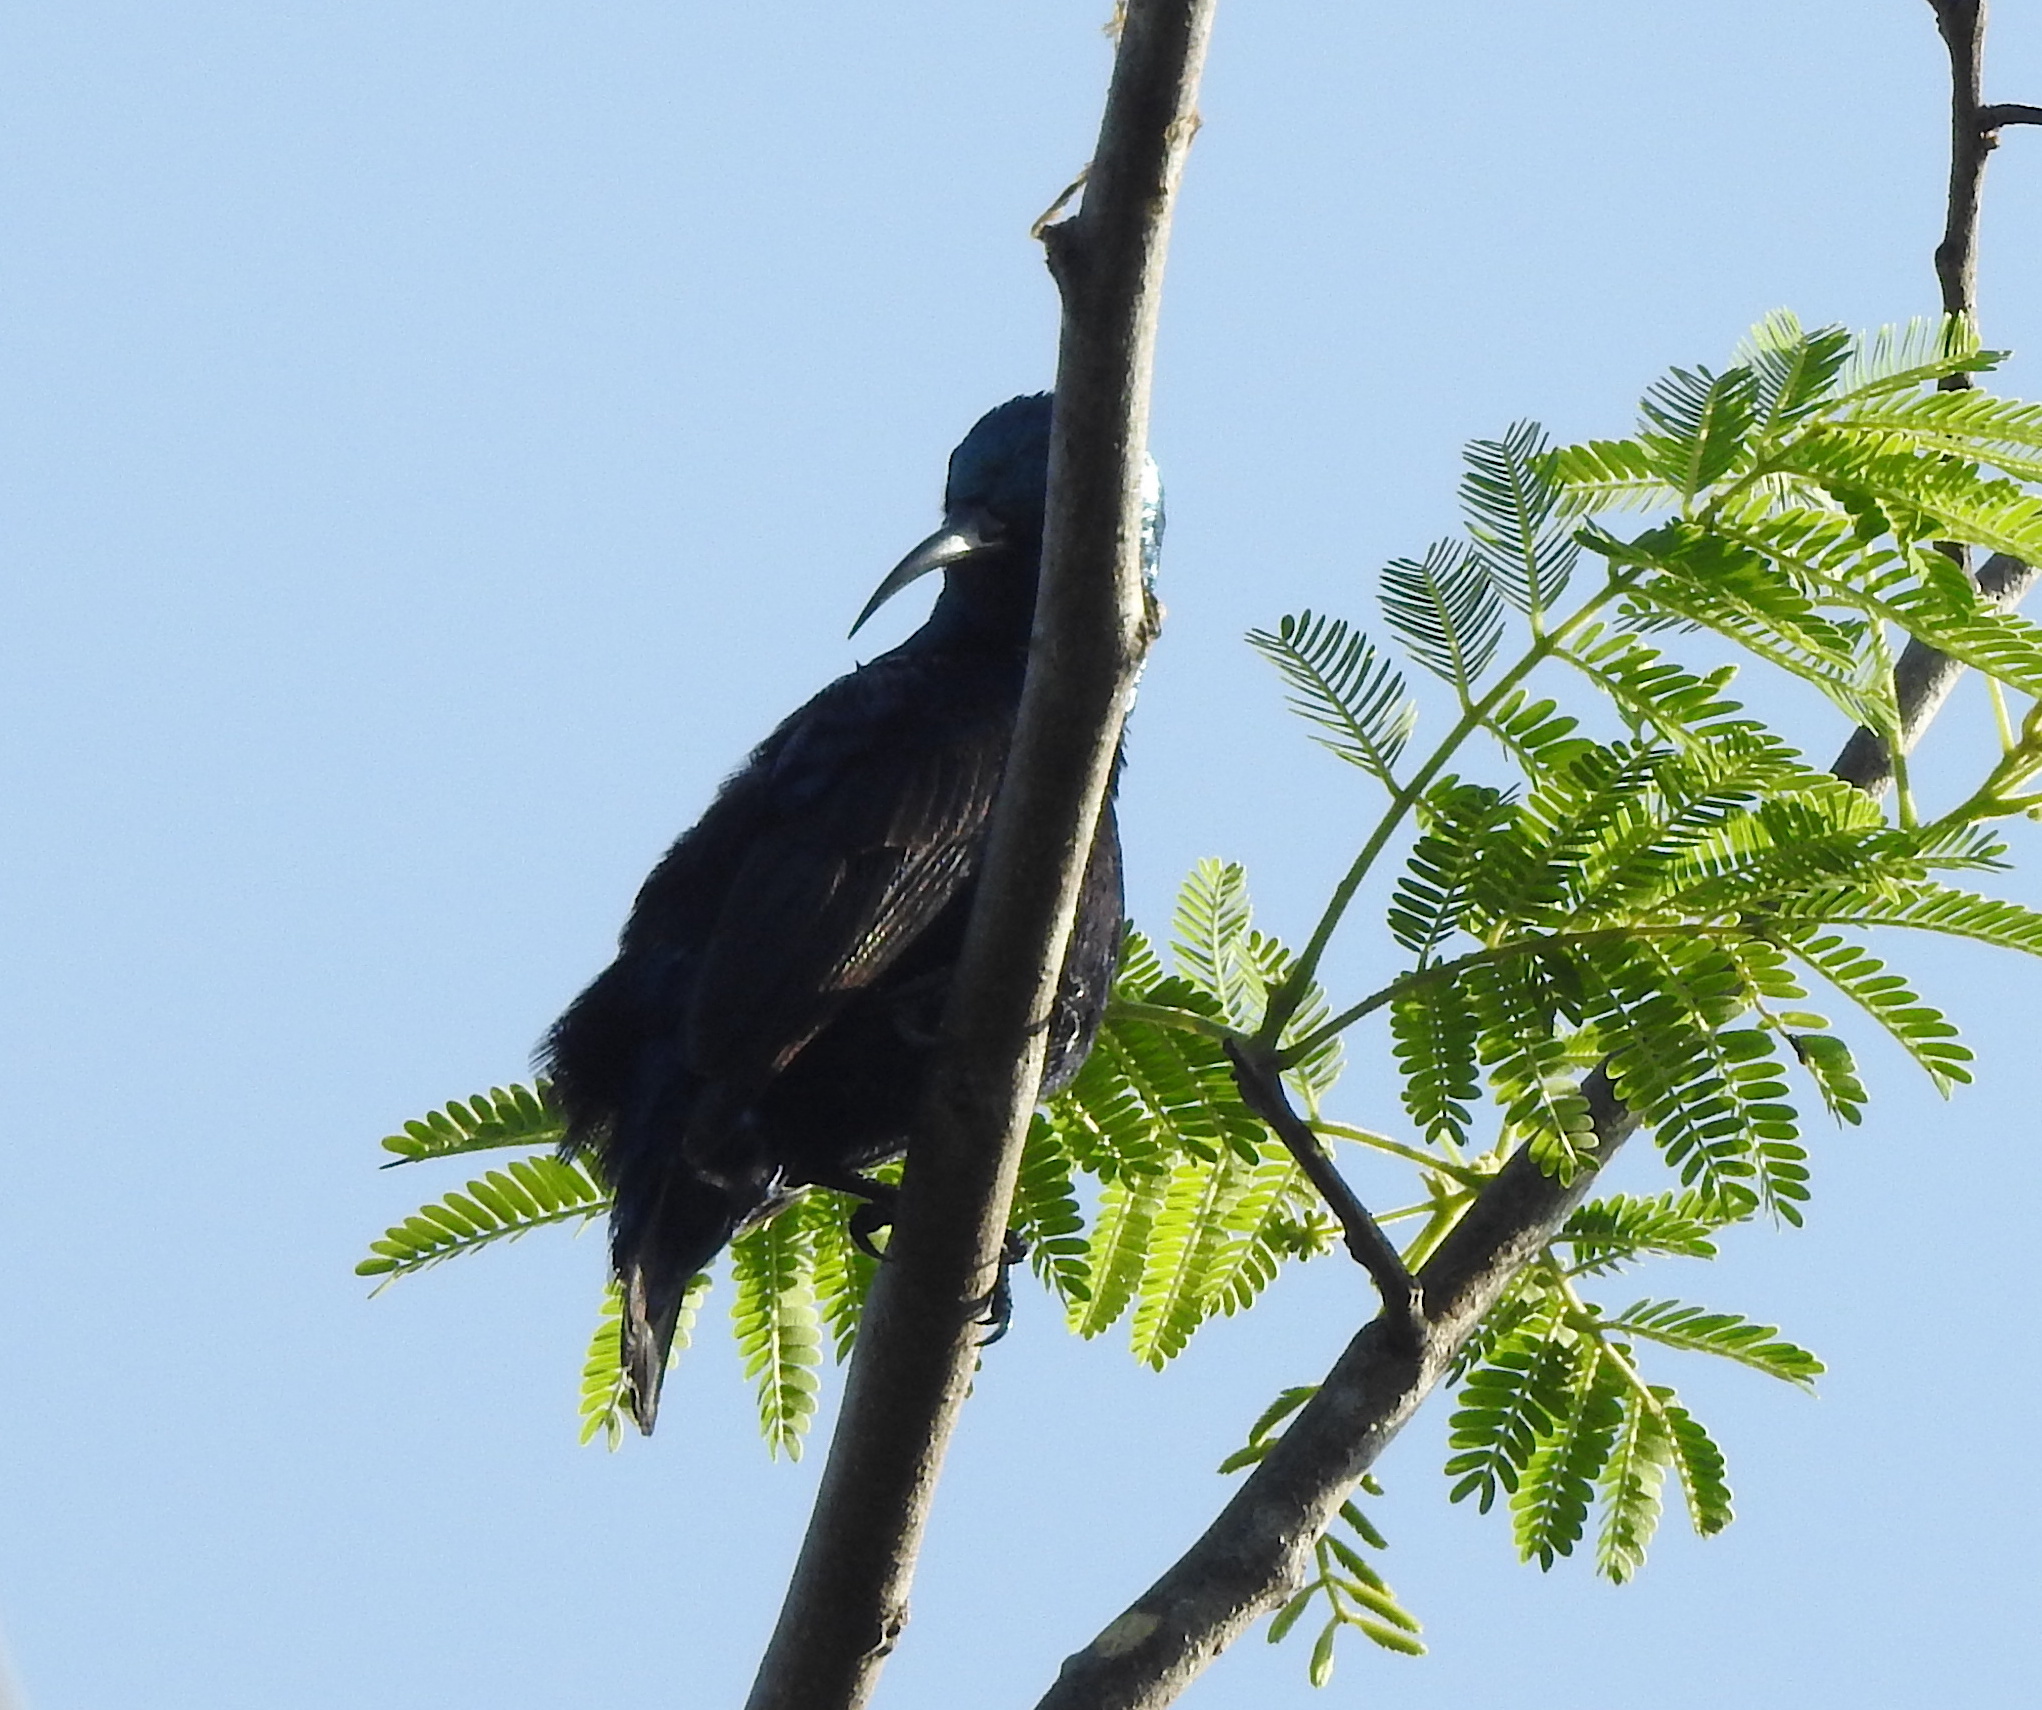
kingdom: Animalia
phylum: Chordata
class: Aves
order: Passeriformes
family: Nectariniidae
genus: Cinnyris
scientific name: Cinnyris asiaticus
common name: Purple sunbird
